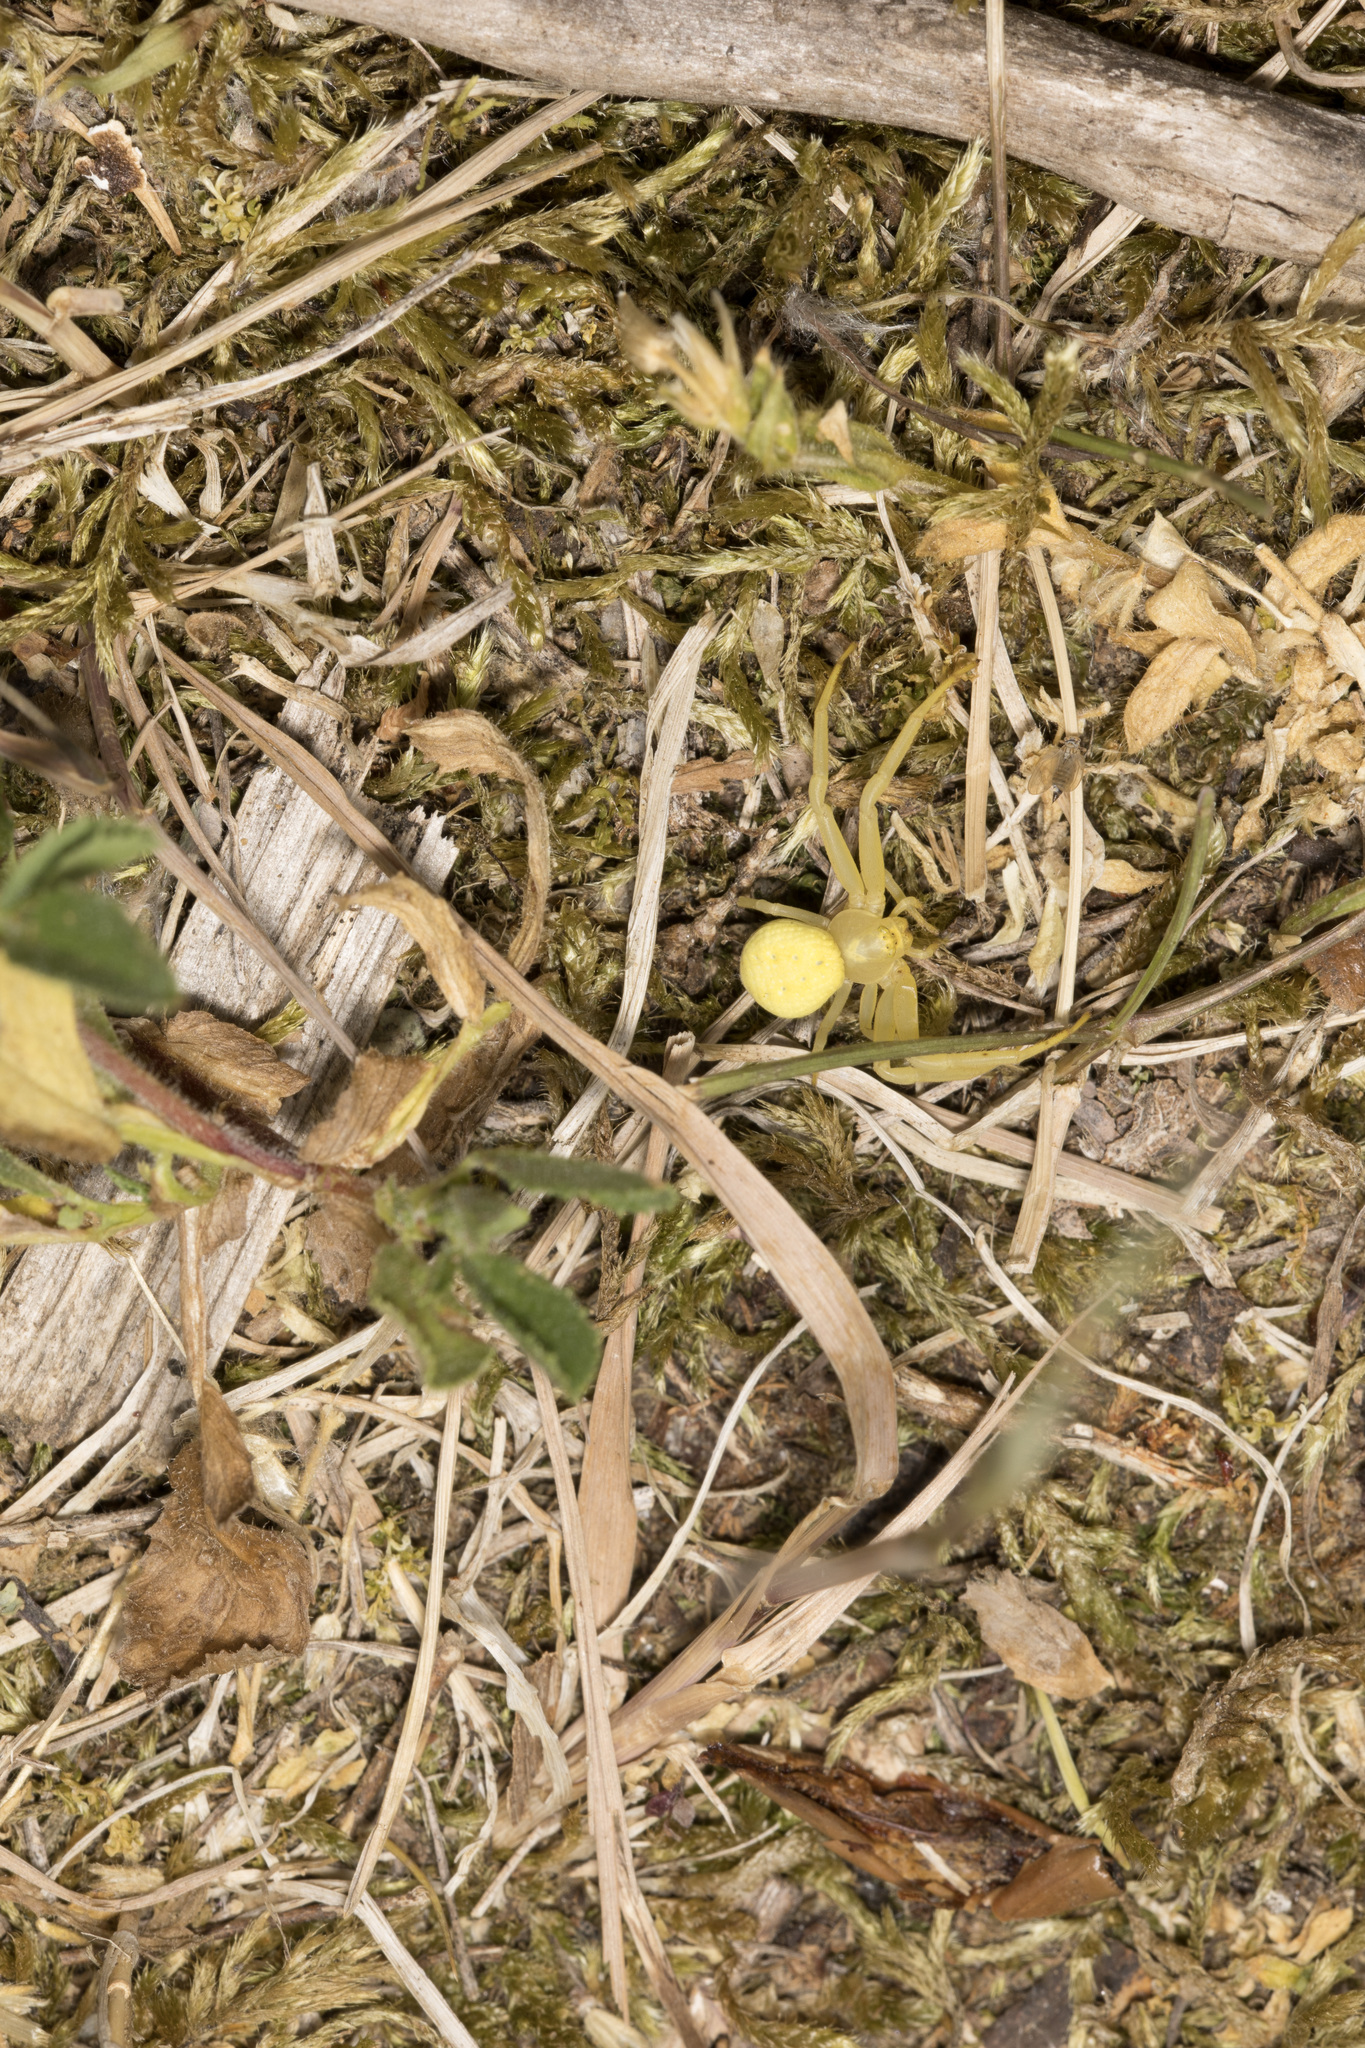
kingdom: Animalia
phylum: Arthropoda
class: Arachnida
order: Araneae
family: Thomisidae
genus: Misumena
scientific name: Misumena vatia
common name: Goldenrod crab spider
